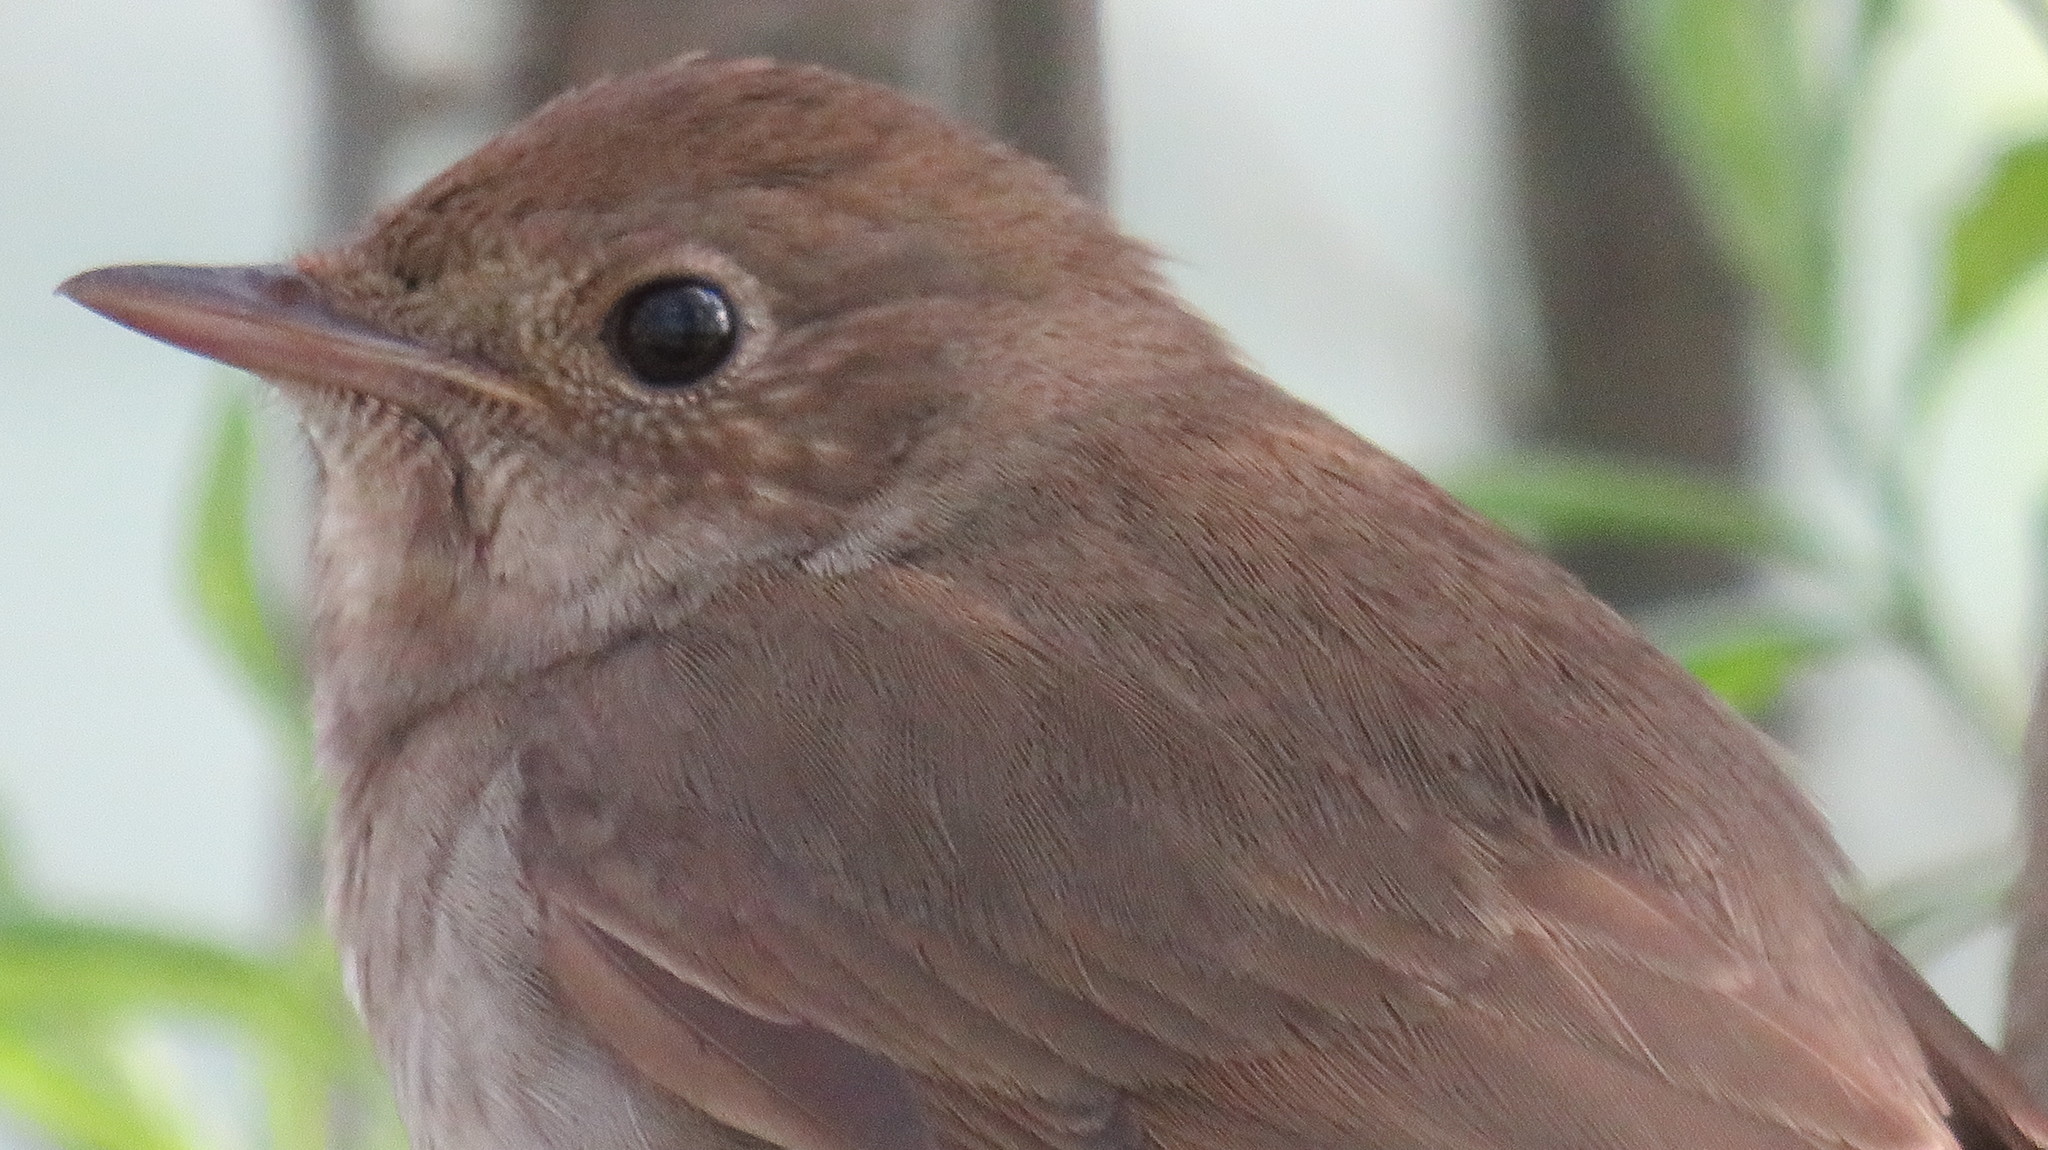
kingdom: Animalia
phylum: Chordata
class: Aves
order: Passeriformes
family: Muscicapidae
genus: Luscinia
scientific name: Luscinia luscinia
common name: Thrush nightingale
